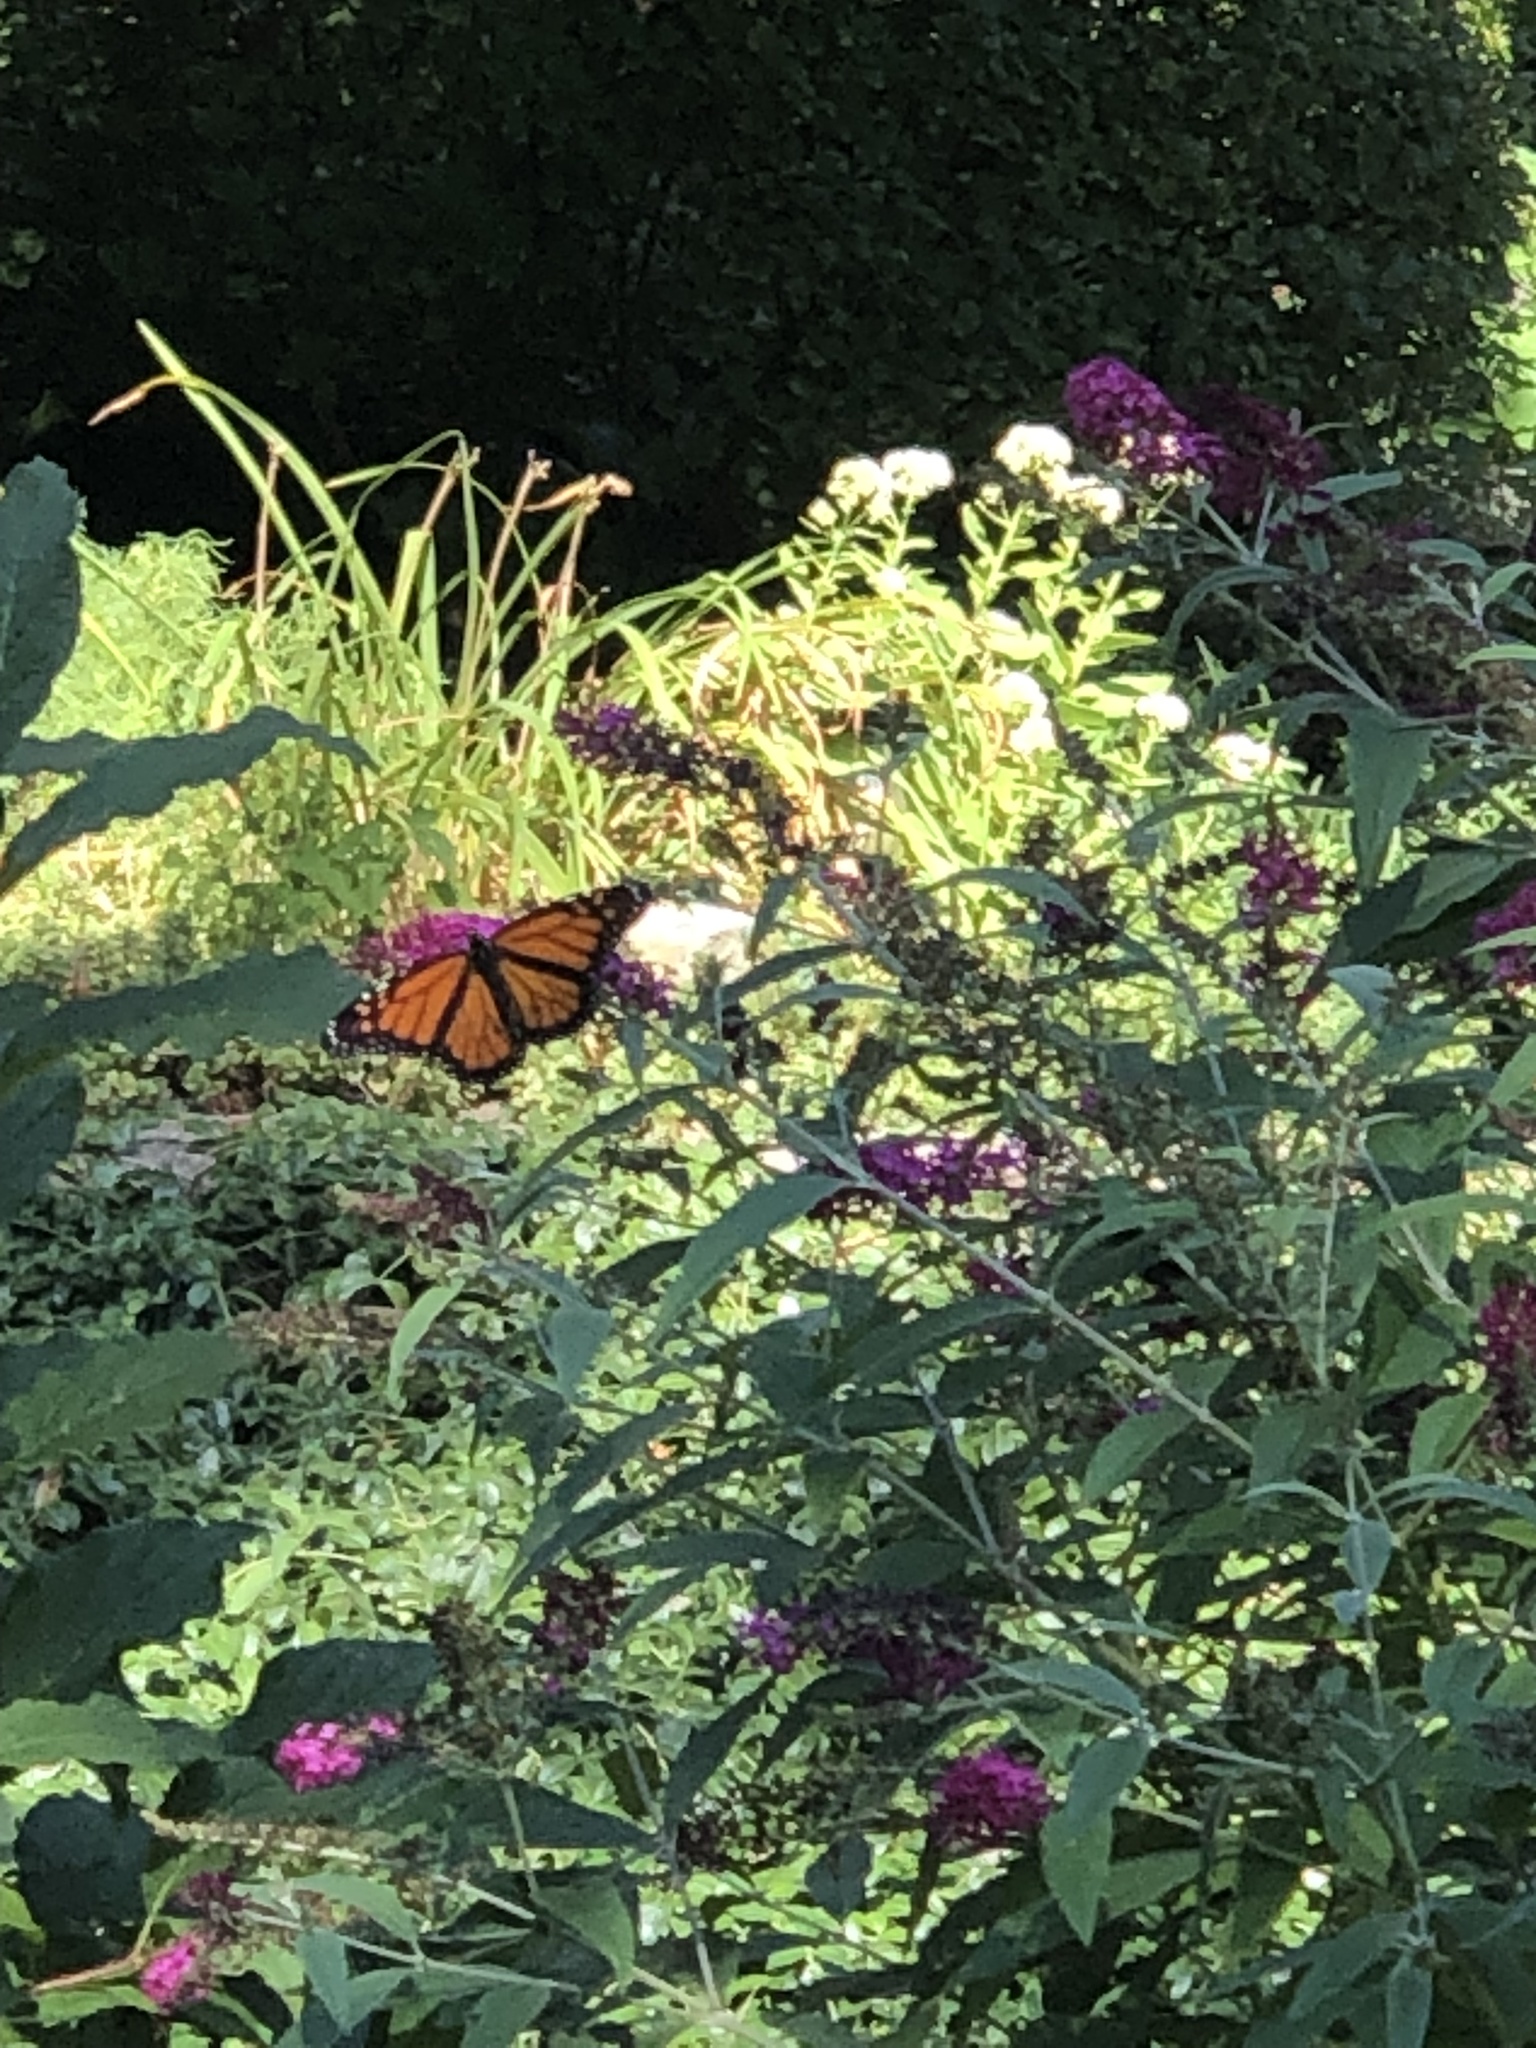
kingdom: Animalia
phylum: Arthropoda
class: Insecta
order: Lepidoptera
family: Nymphalidae
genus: Danaus
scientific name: Danaus plexippus
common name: Monarch
